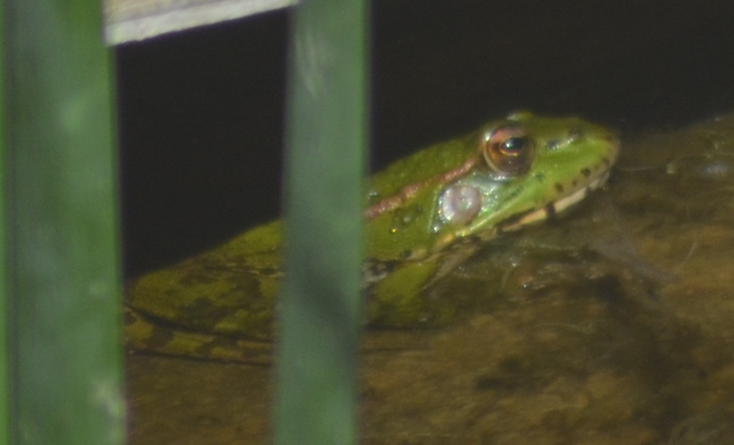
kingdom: Animalia
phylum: Chordata
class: Amphibia
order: Anura
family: Ranidae
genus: Pelophylax
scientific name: Pelophylax
